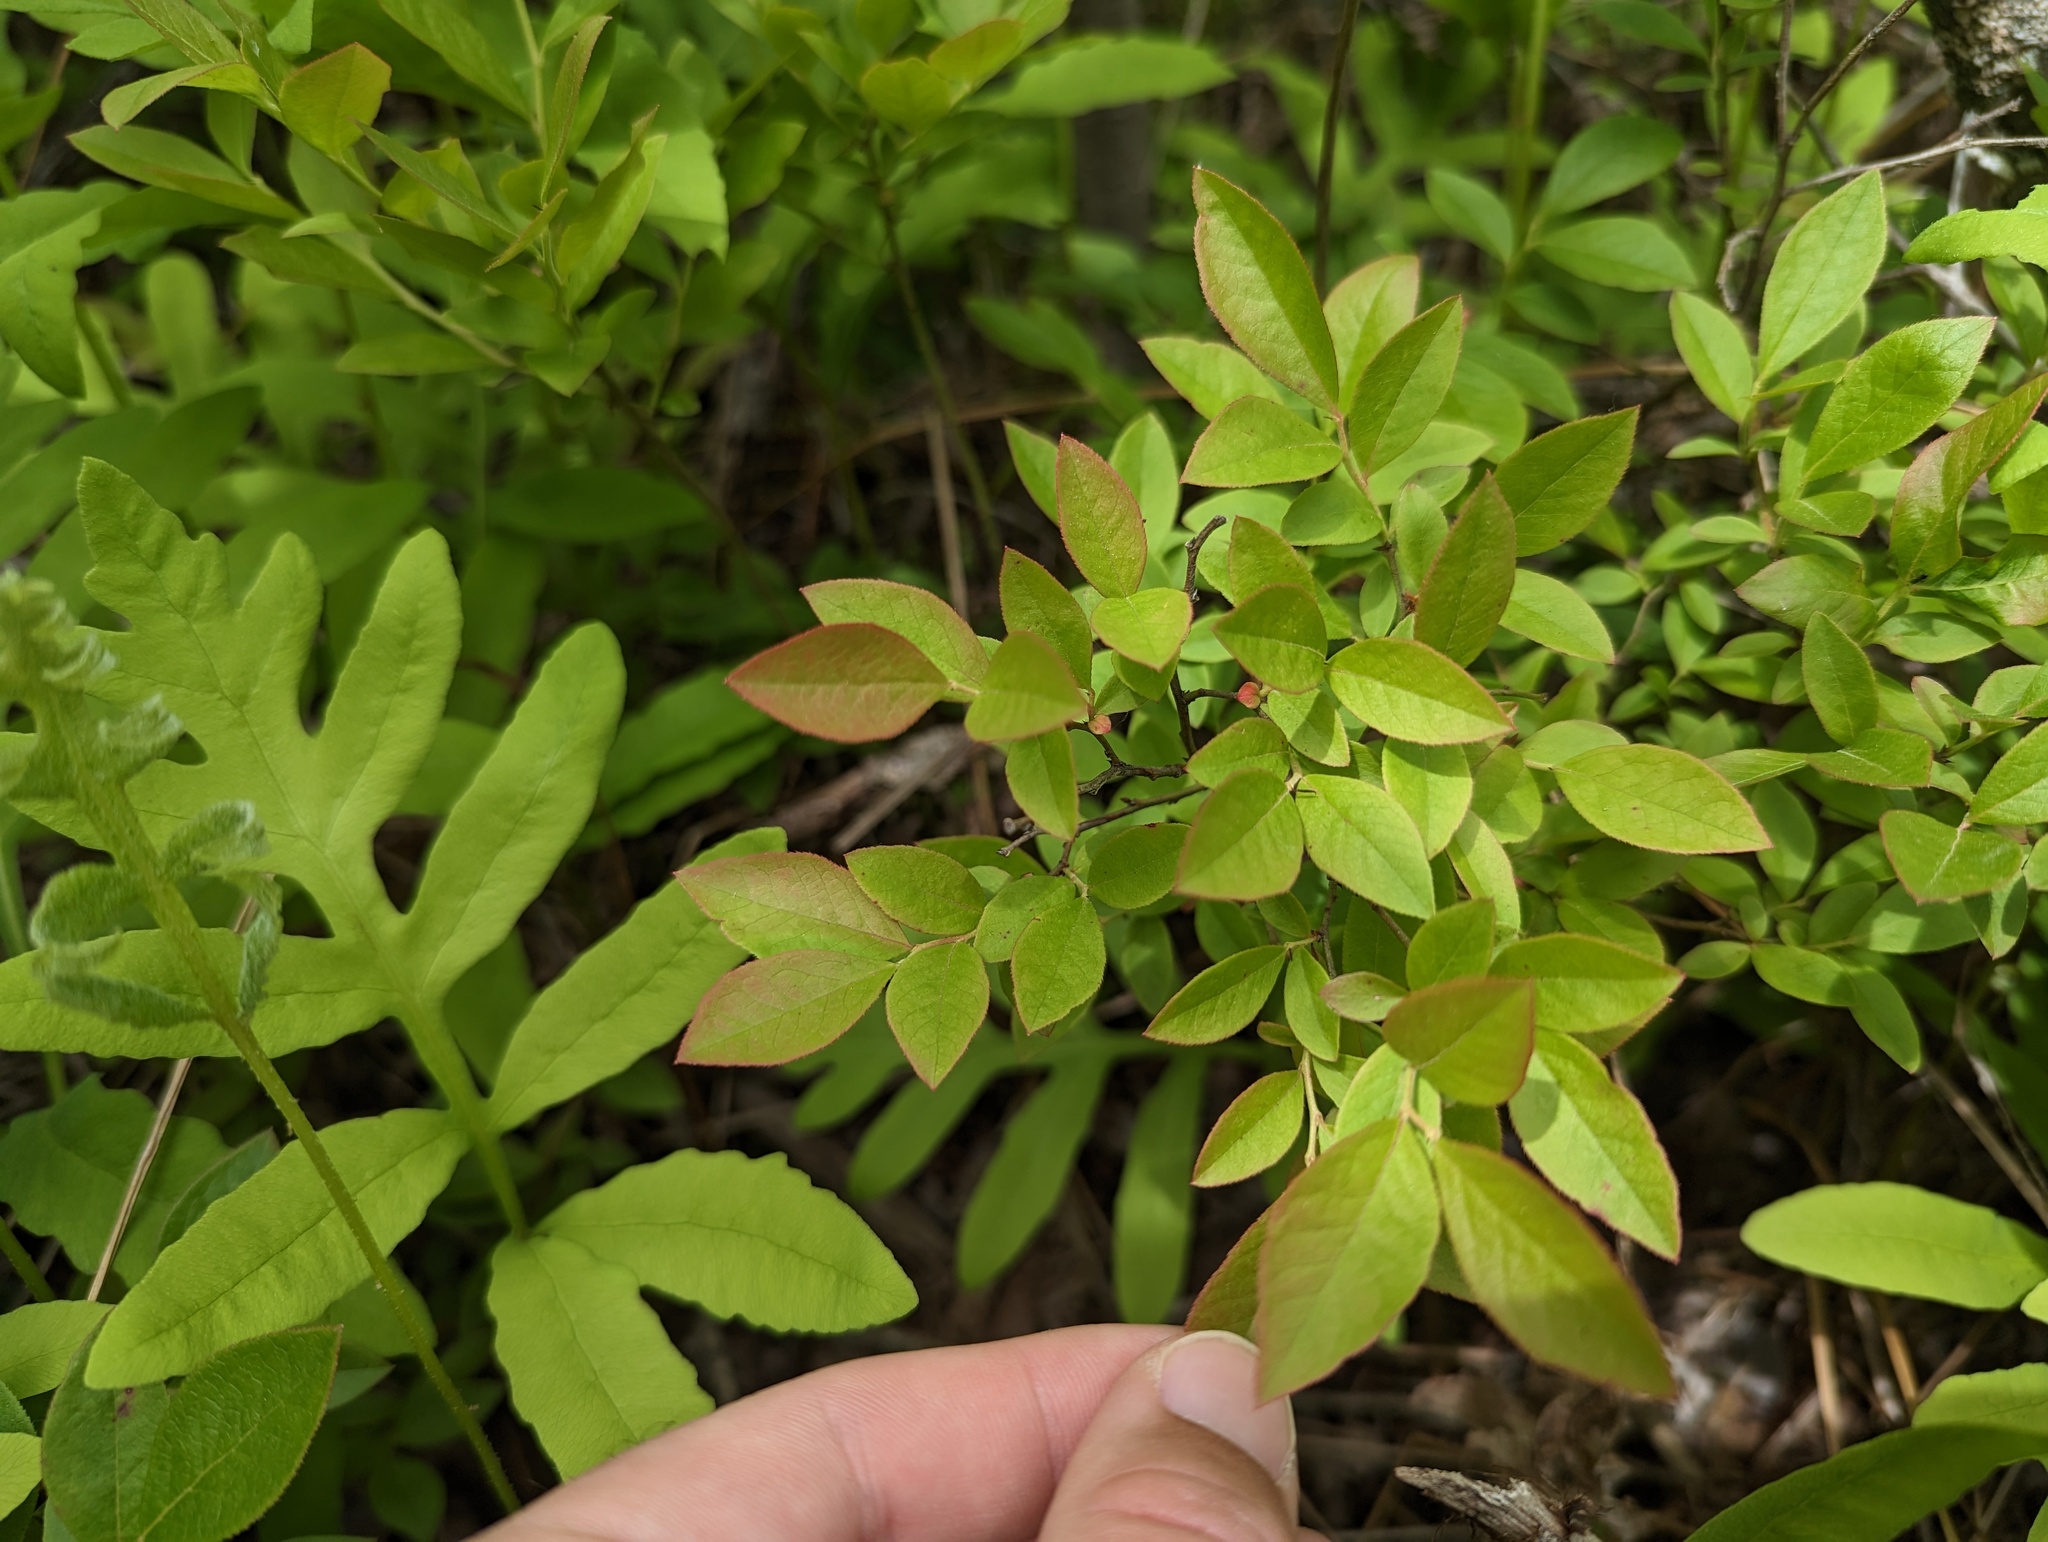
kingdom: Plantae
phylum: Tracheophyta
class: Magnoliopsida
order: Ericales
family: Ericaceae
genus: Vaccinium
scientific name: Vaccinium angustifolium
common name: Early lowbush blueberry
